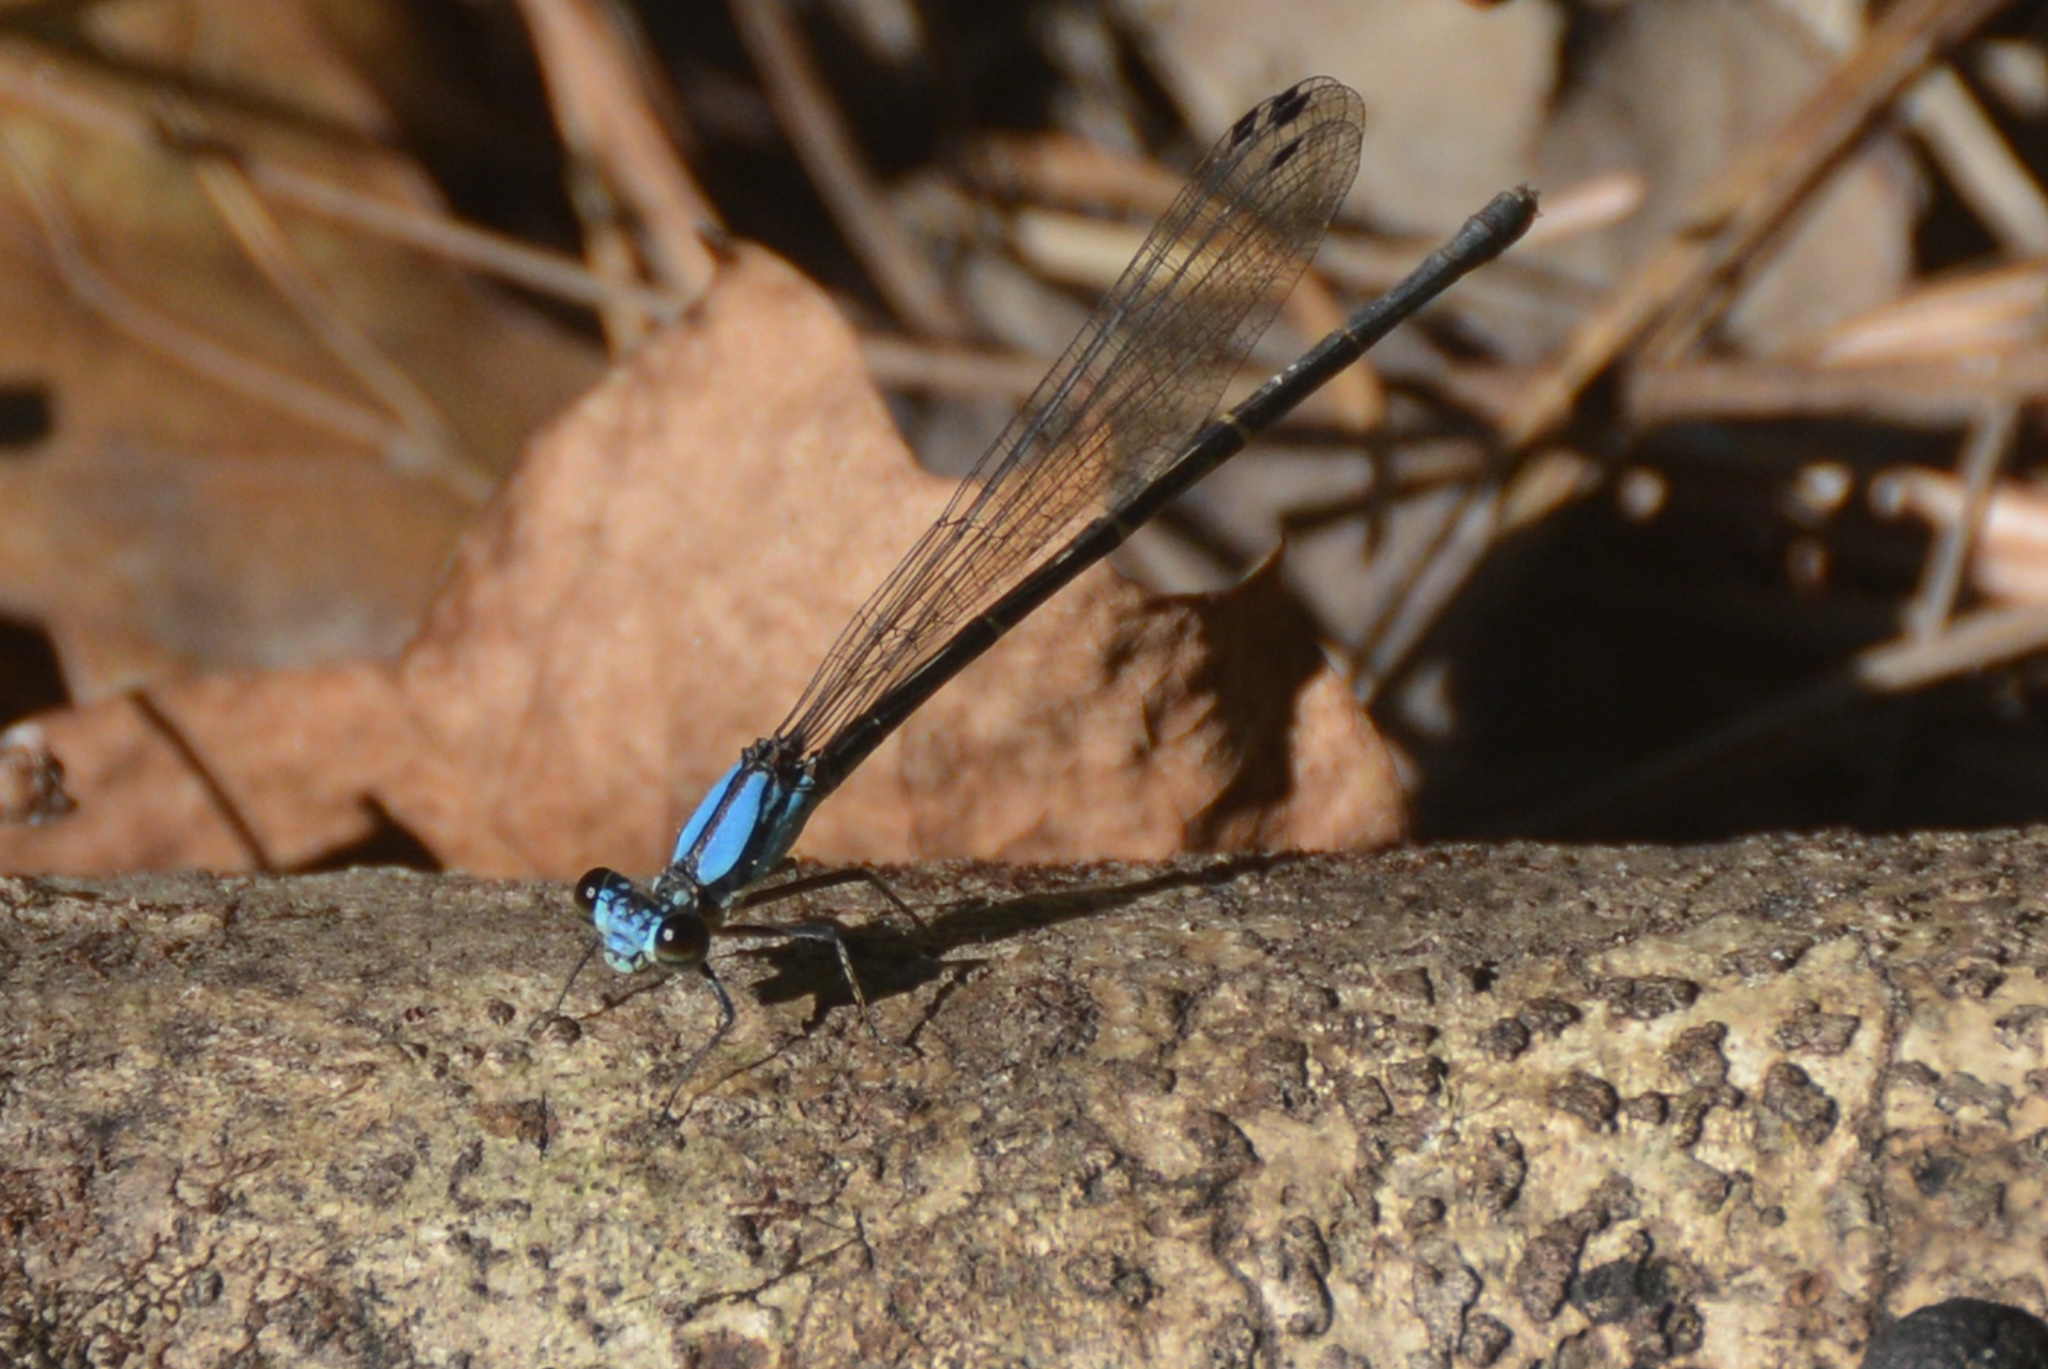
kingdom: Animalia
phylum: Arthropoda
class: Insecta
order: Odonata
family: Coenagrionidae
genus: Argia
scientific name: Argia tibialis
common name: Blue-tipped dancer
